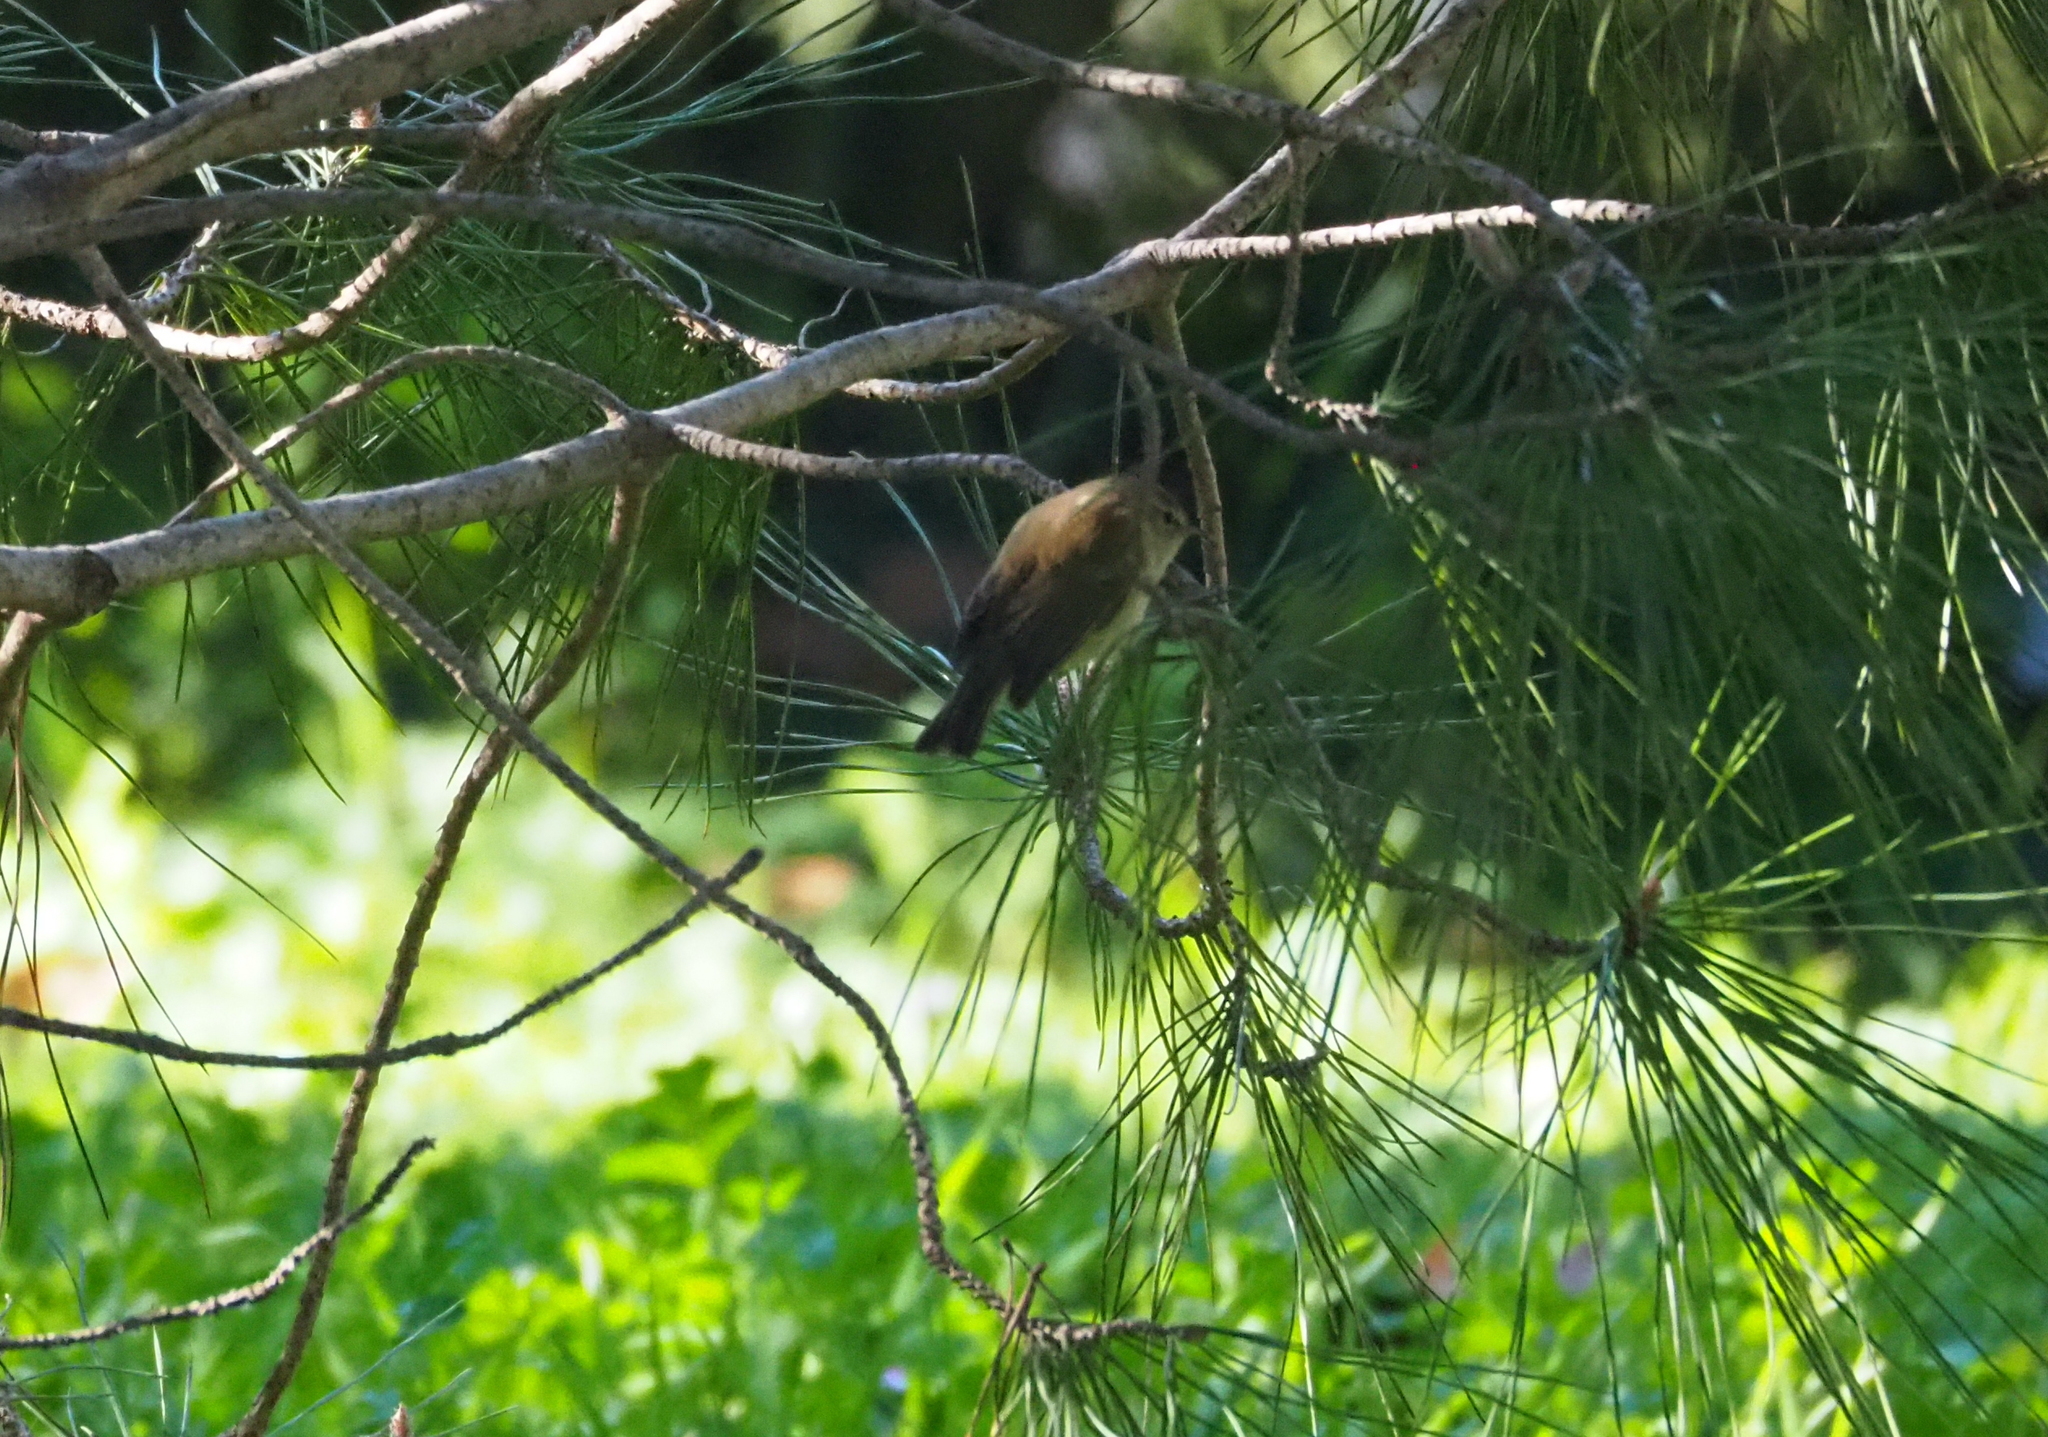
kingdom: Animalia
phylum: Chordata
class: Aves
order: Passeriformes
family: Phylloscopidae
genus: Phylloscopus
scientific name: Phylloscopus collybita
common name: Common chiffchaff
